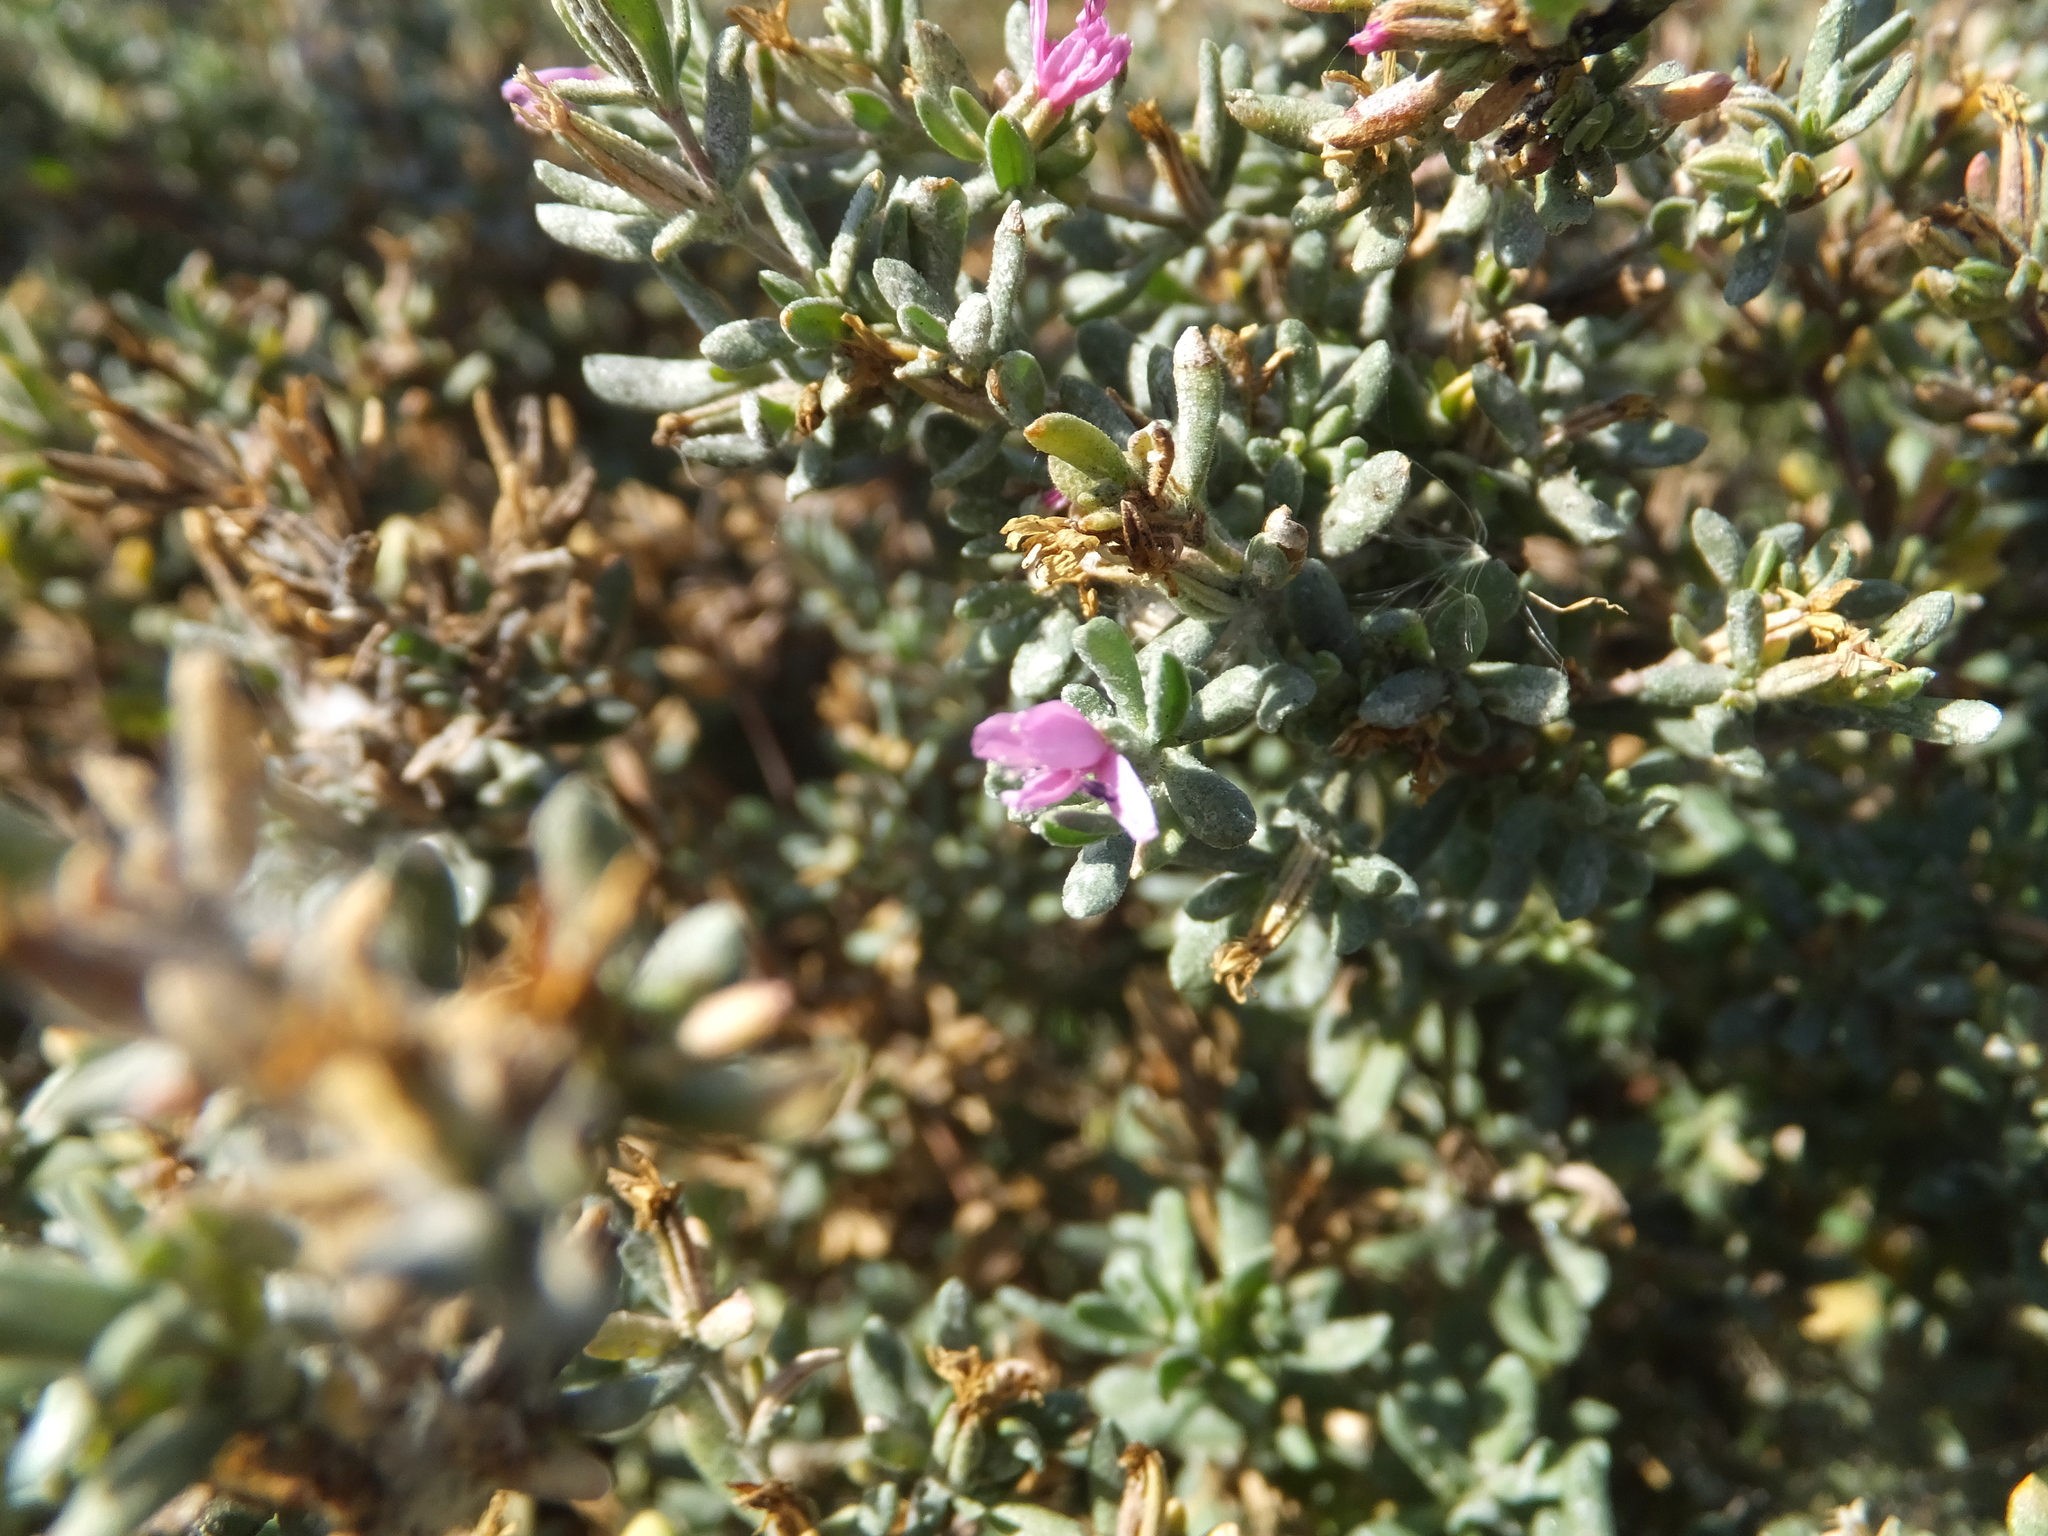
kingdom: Plantae
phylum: Tracheophyta
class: Magnoliopsida
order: Caryophyllales
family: Frankeniaceae
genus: Frankenia
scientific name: Frankenia salina
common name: Alkali seaheath
